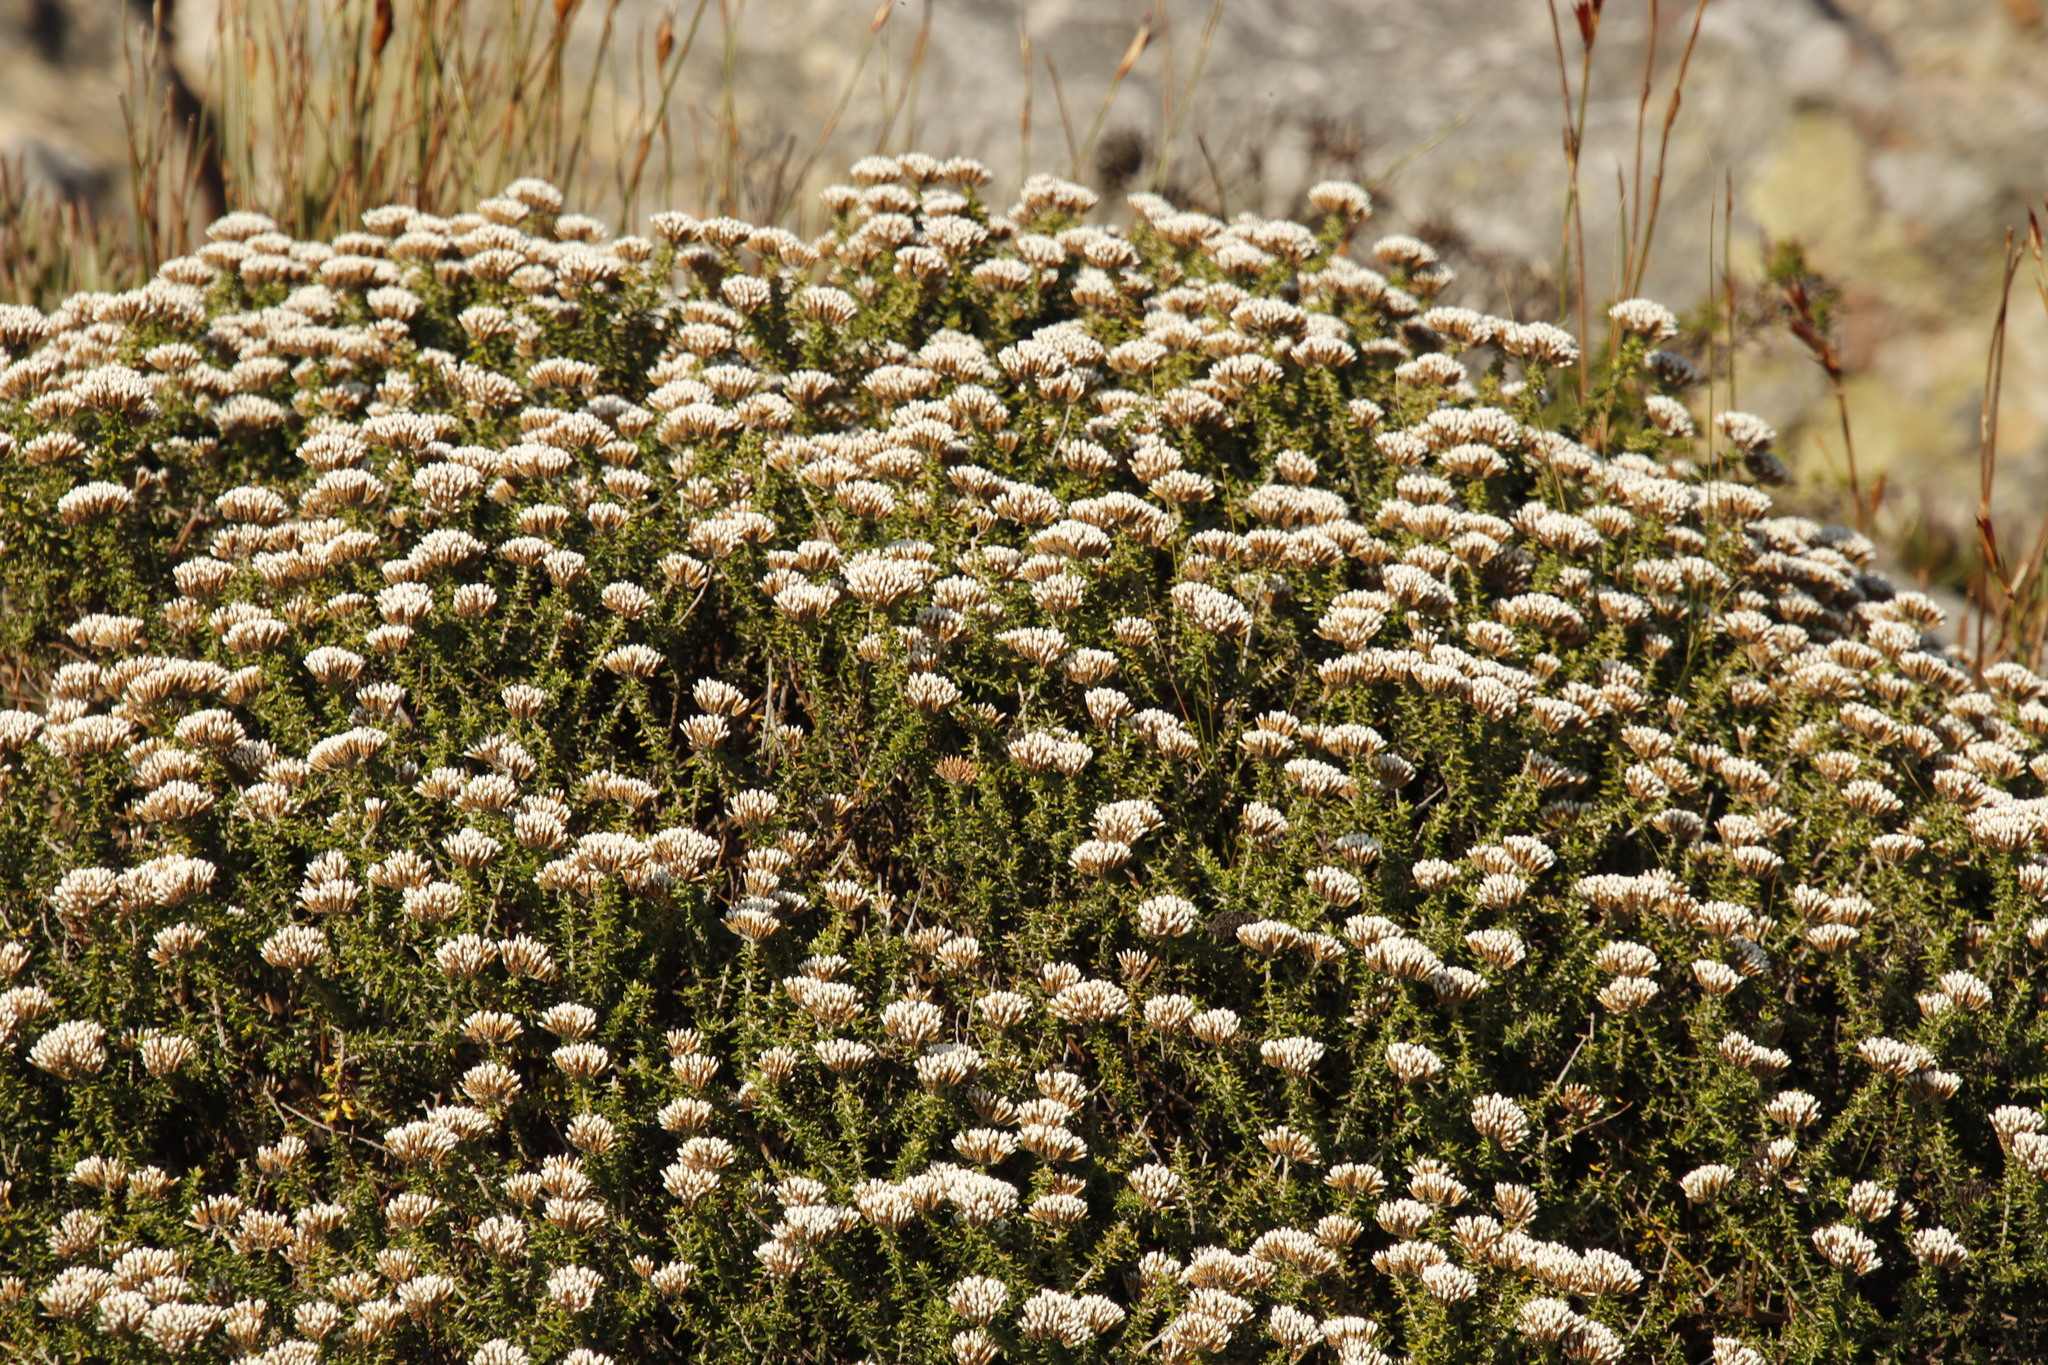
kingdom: Plantae
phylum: Tracheophyta
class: Magnoliopsida
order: Asterales
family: Asteraceae
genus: Metalasia
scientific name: Metalasia densa
